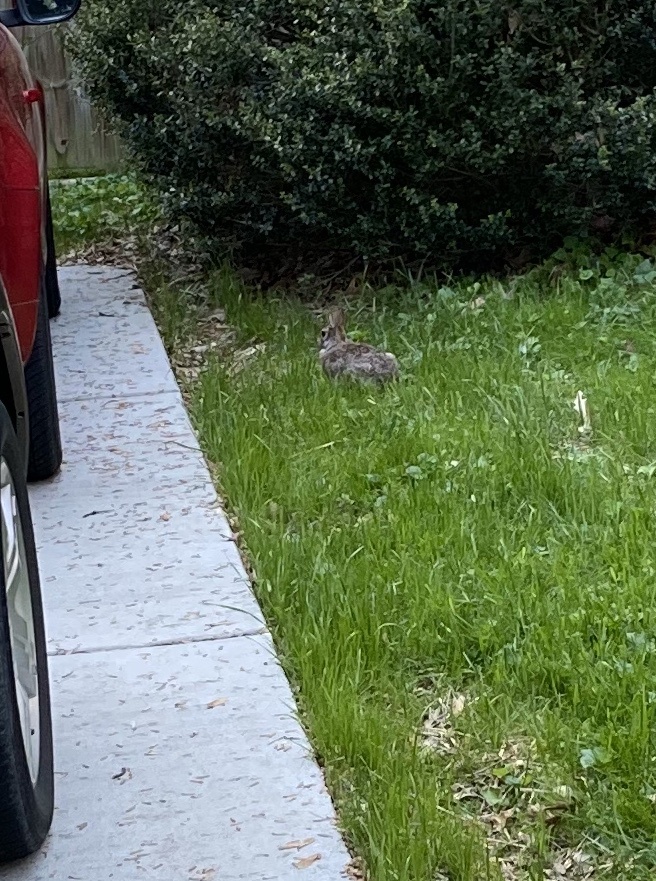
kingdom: Animalia
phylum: Chordata
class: Mammalia
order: Lagomorpha
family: Leporidae
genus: Sylvilagus
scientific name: Sylvilagus floridanus
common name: Eastern cottontail
